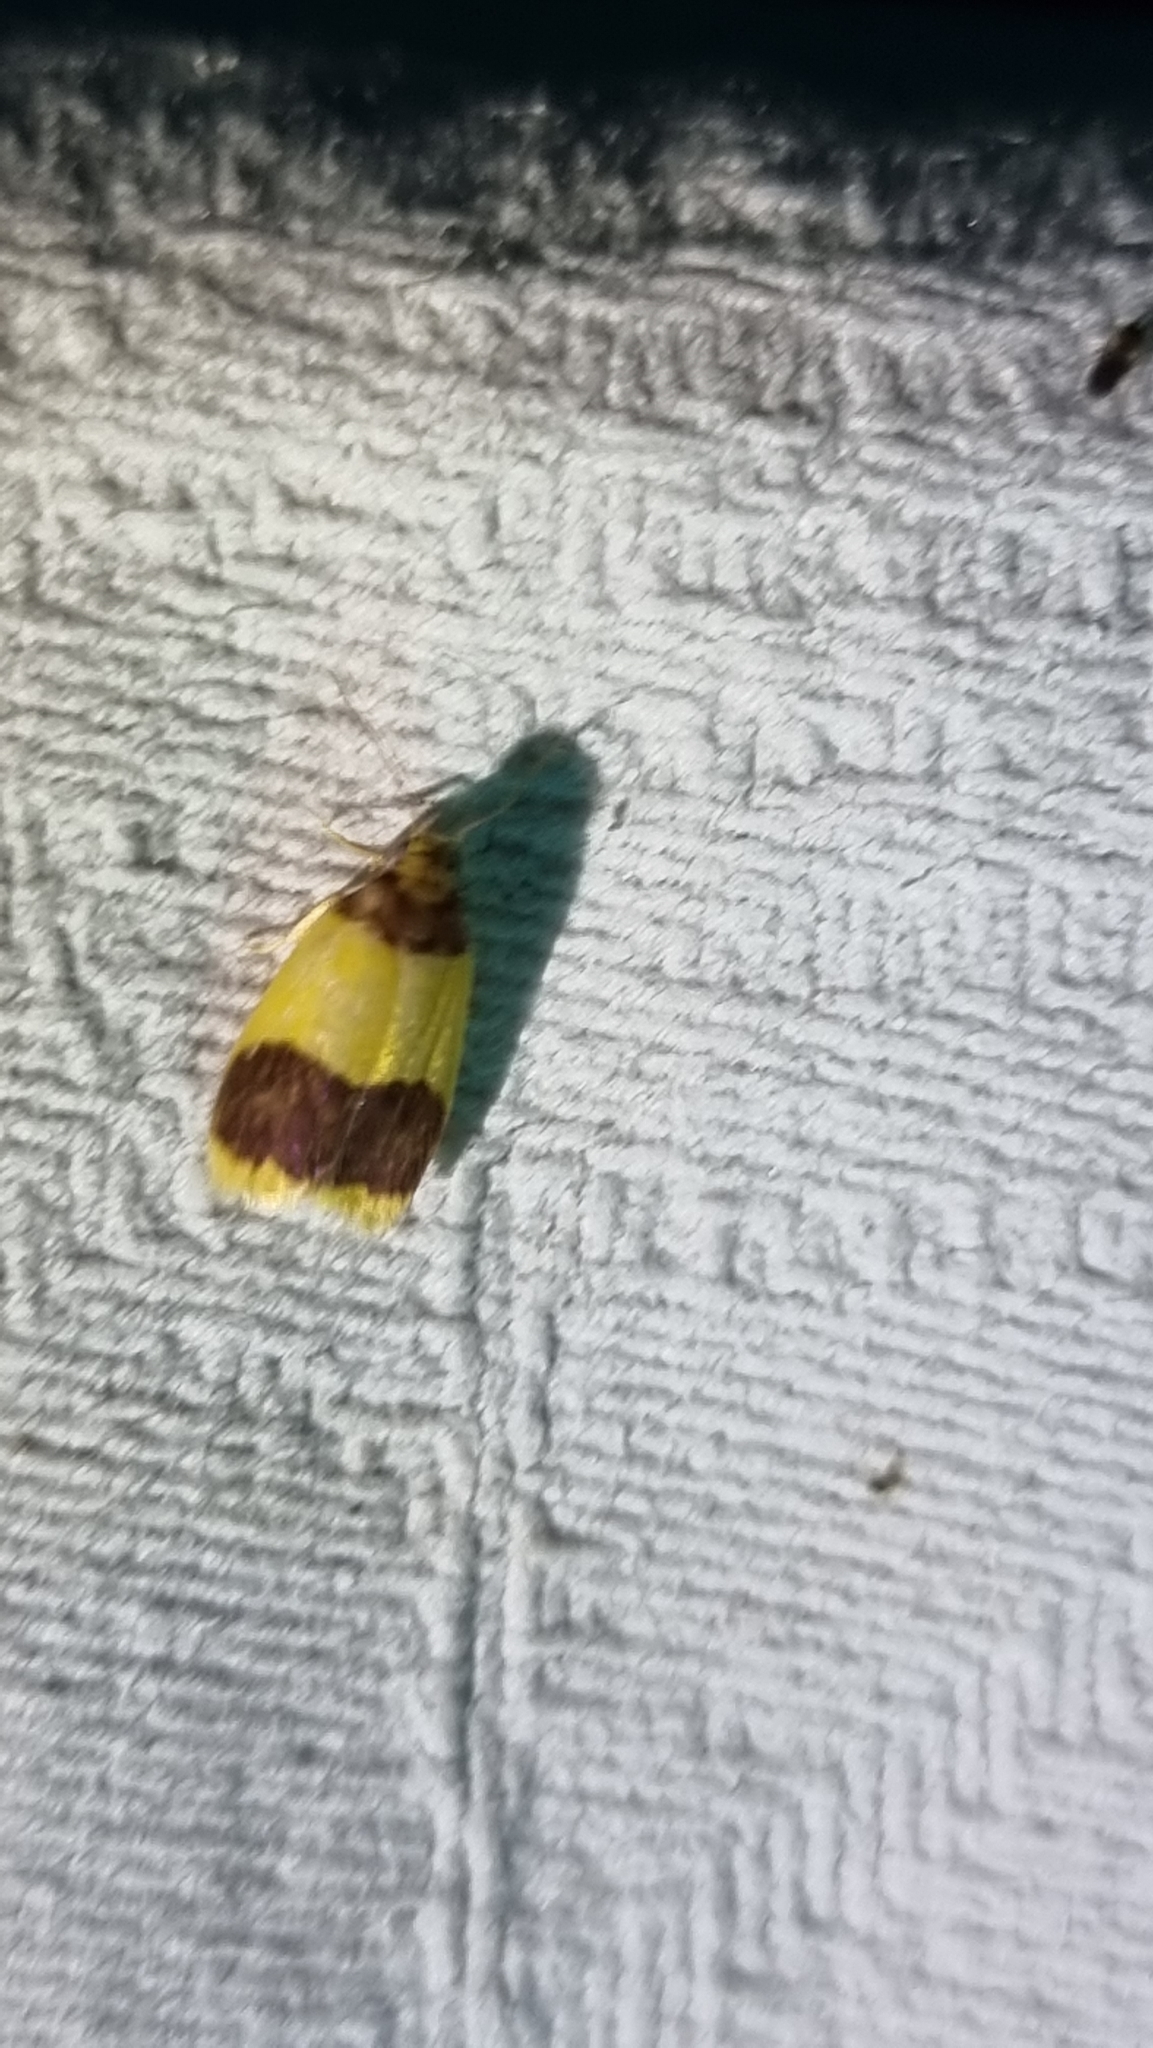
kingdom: Animalia
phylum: Arthropoda
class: Insecta
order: Lepidoptera
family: Erebidae
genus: Heterallactis
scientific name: Heterallactis microchrysa
